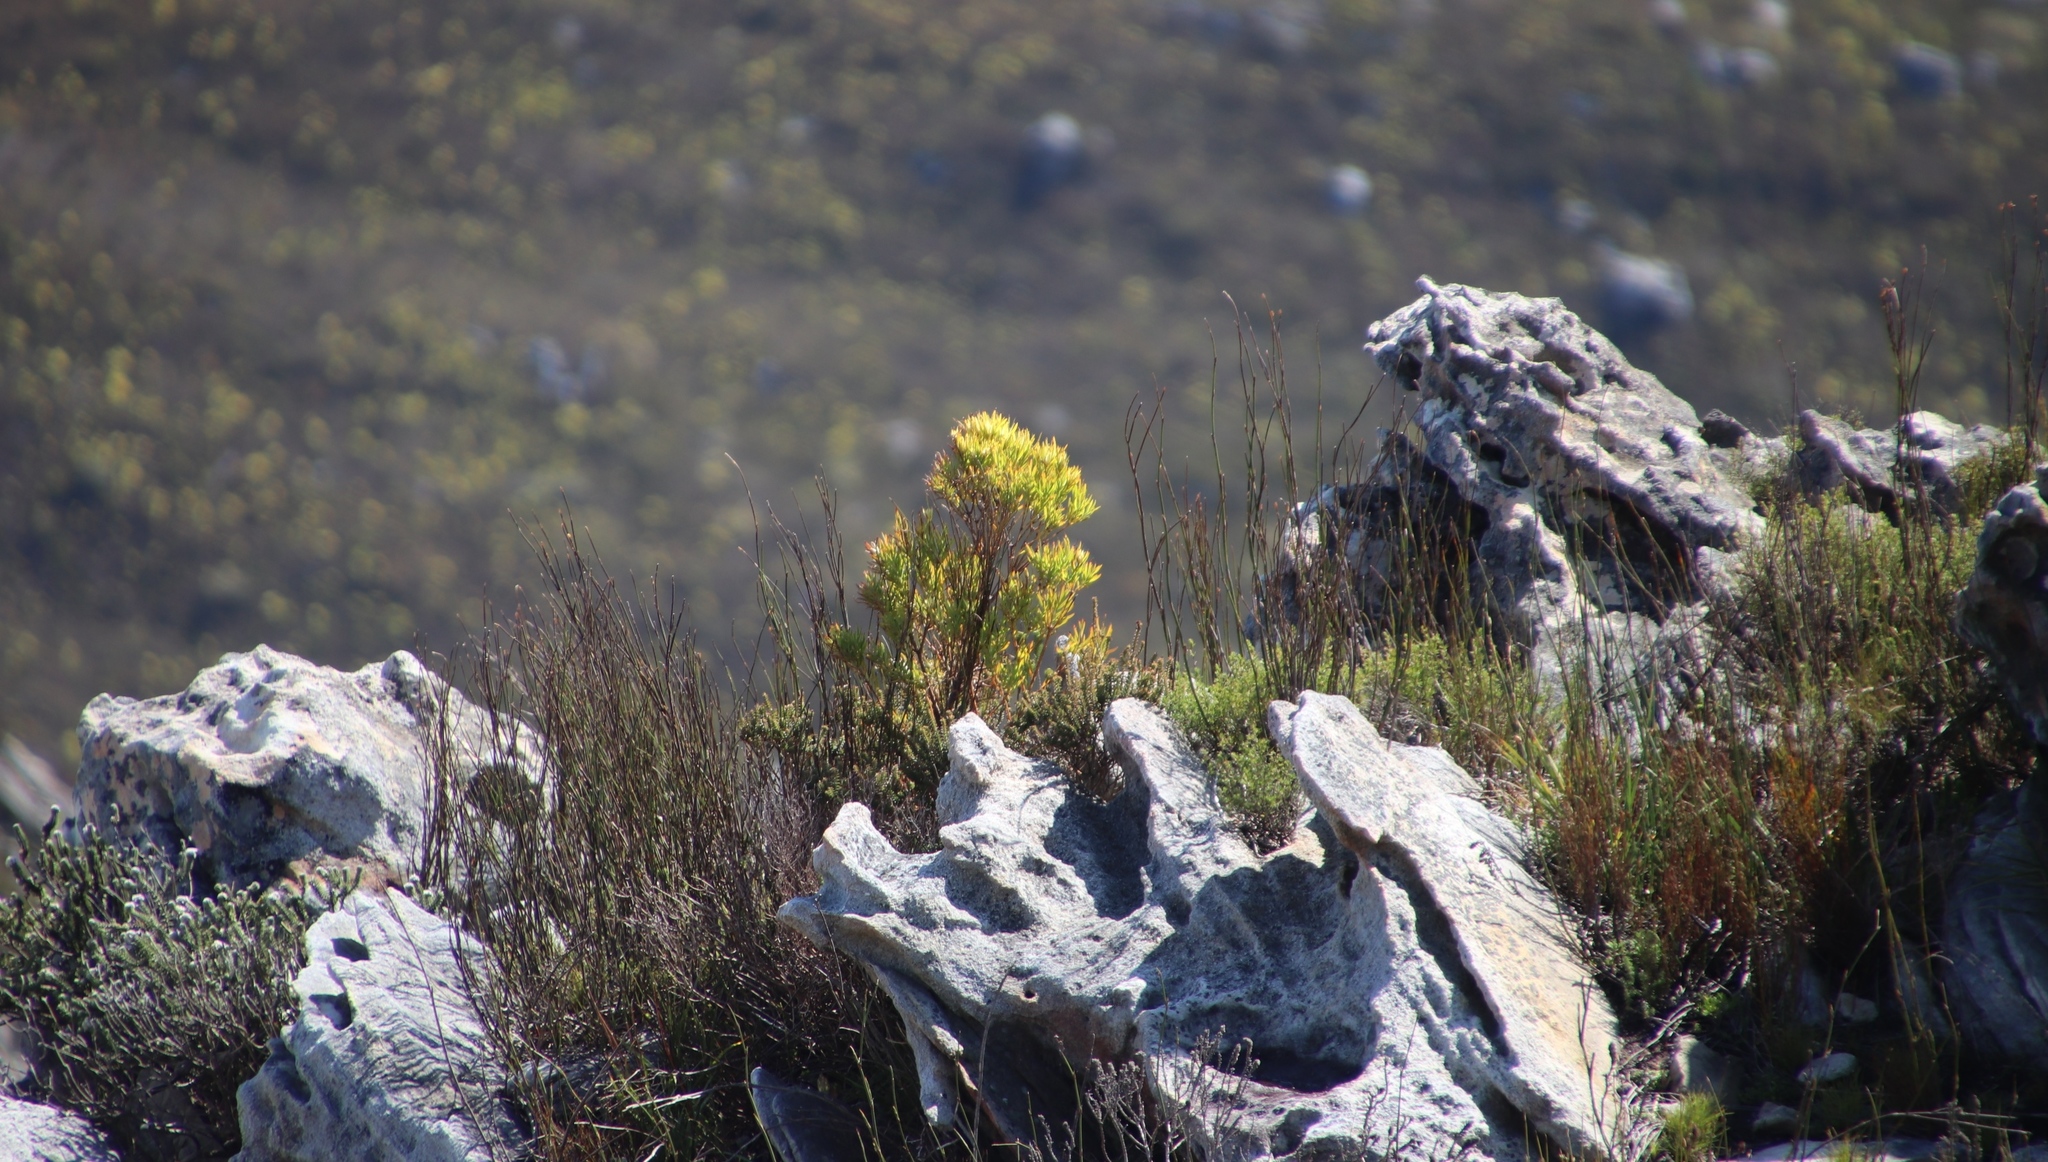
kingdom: Plantae
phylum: Tracheophyta
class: Magnoliopsida
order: Proteales
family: Proteaceae
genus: Leucadendron
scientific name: Leucadendron xanthoconus
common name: Sickle-leaf conebush
